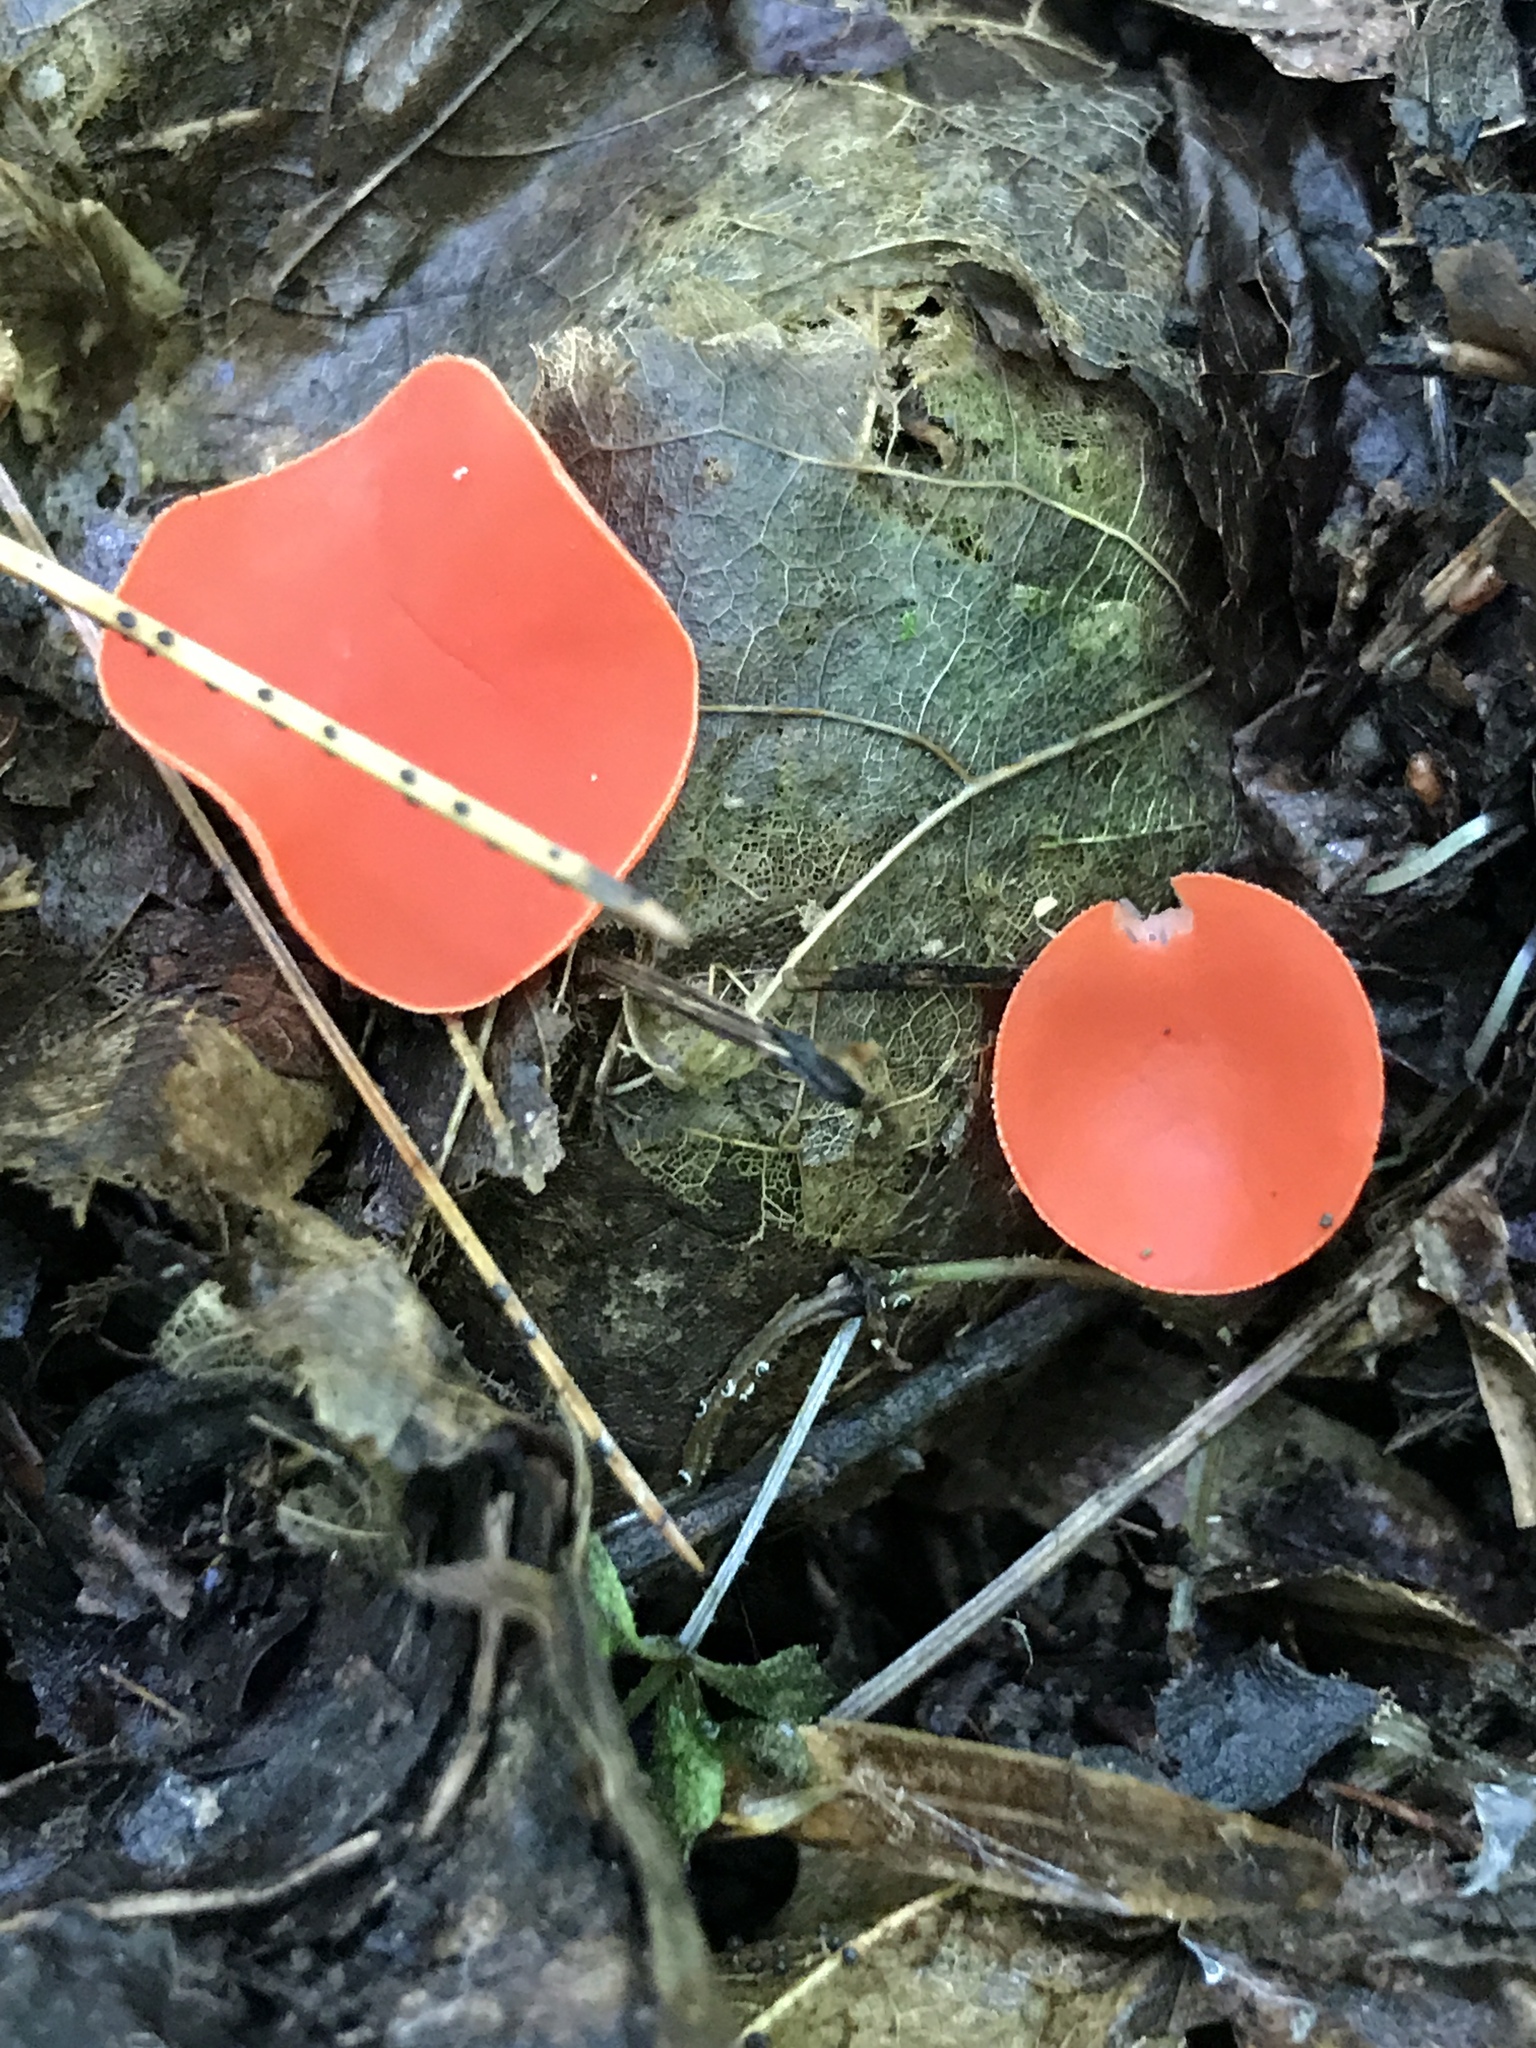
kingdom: Fungi
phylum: Ascomycota
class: Pezizomycetes
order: Pezizales
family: Sarcoscyphaceae
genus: Sarcoscypha
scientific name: Sarcoscypha occidentalis
